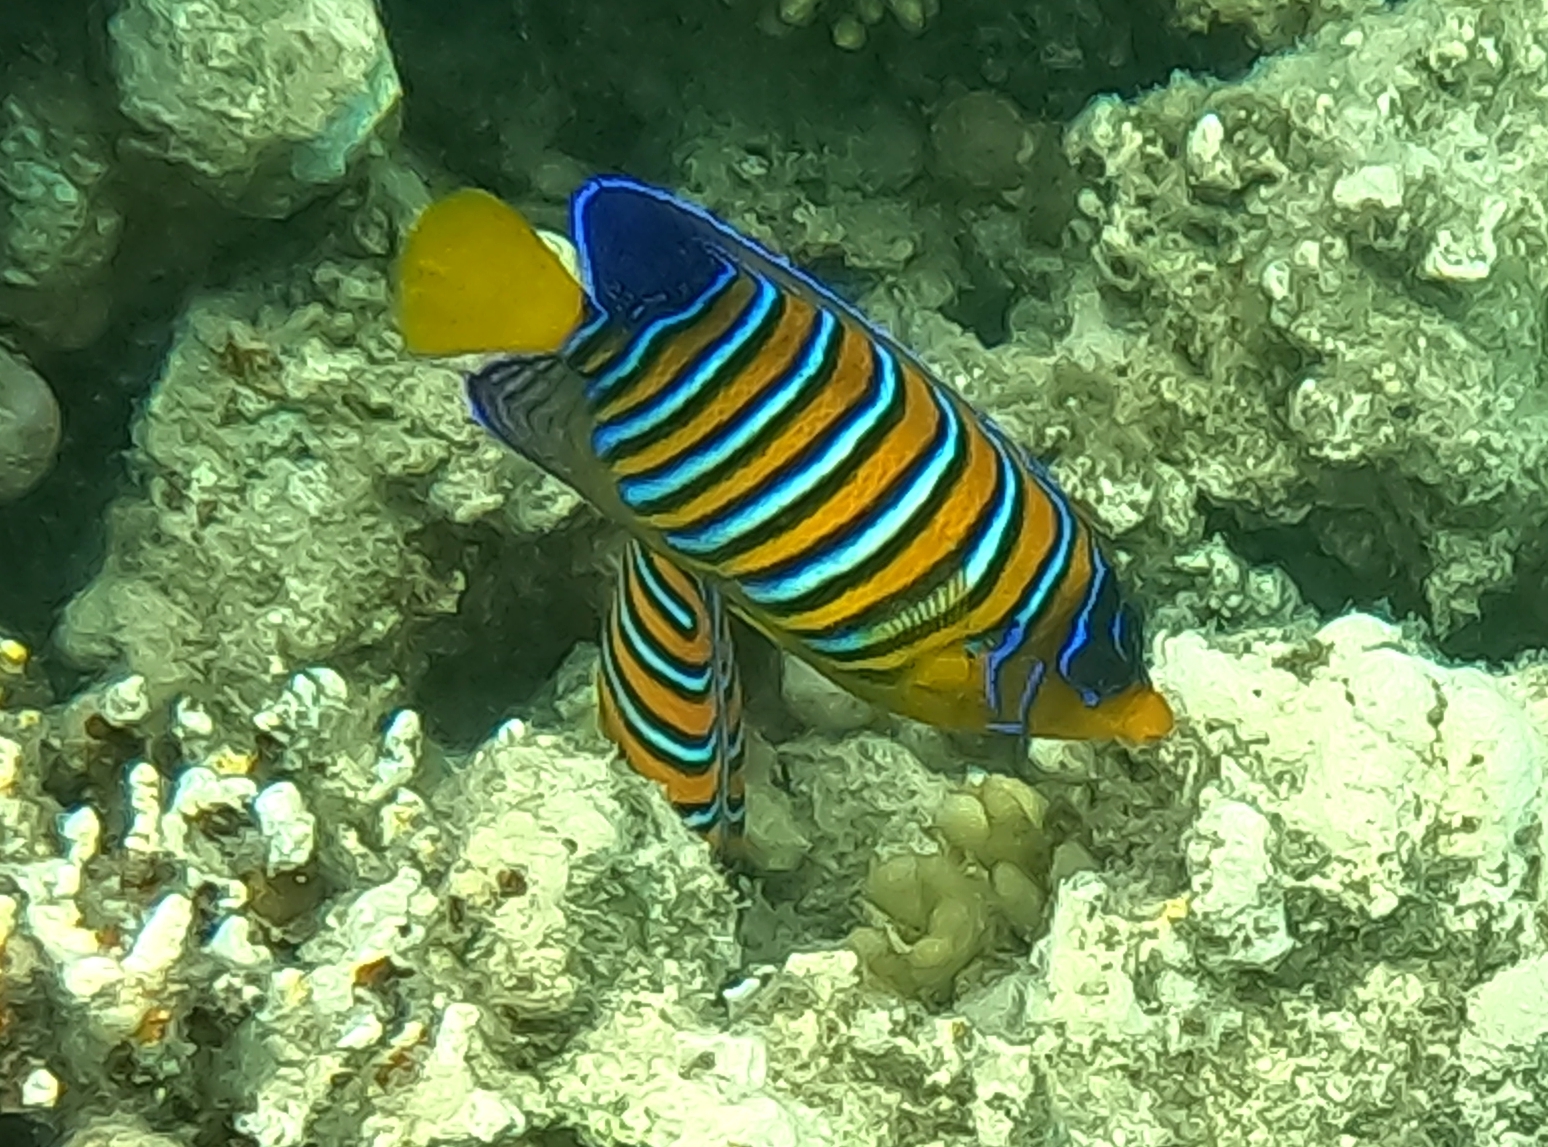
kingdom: Animalia
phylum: Chordata
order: Perciformes
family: Pomacanthidae
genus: Pygoplites
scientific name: Pygoplites diacanthus
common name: Regal angelfish
